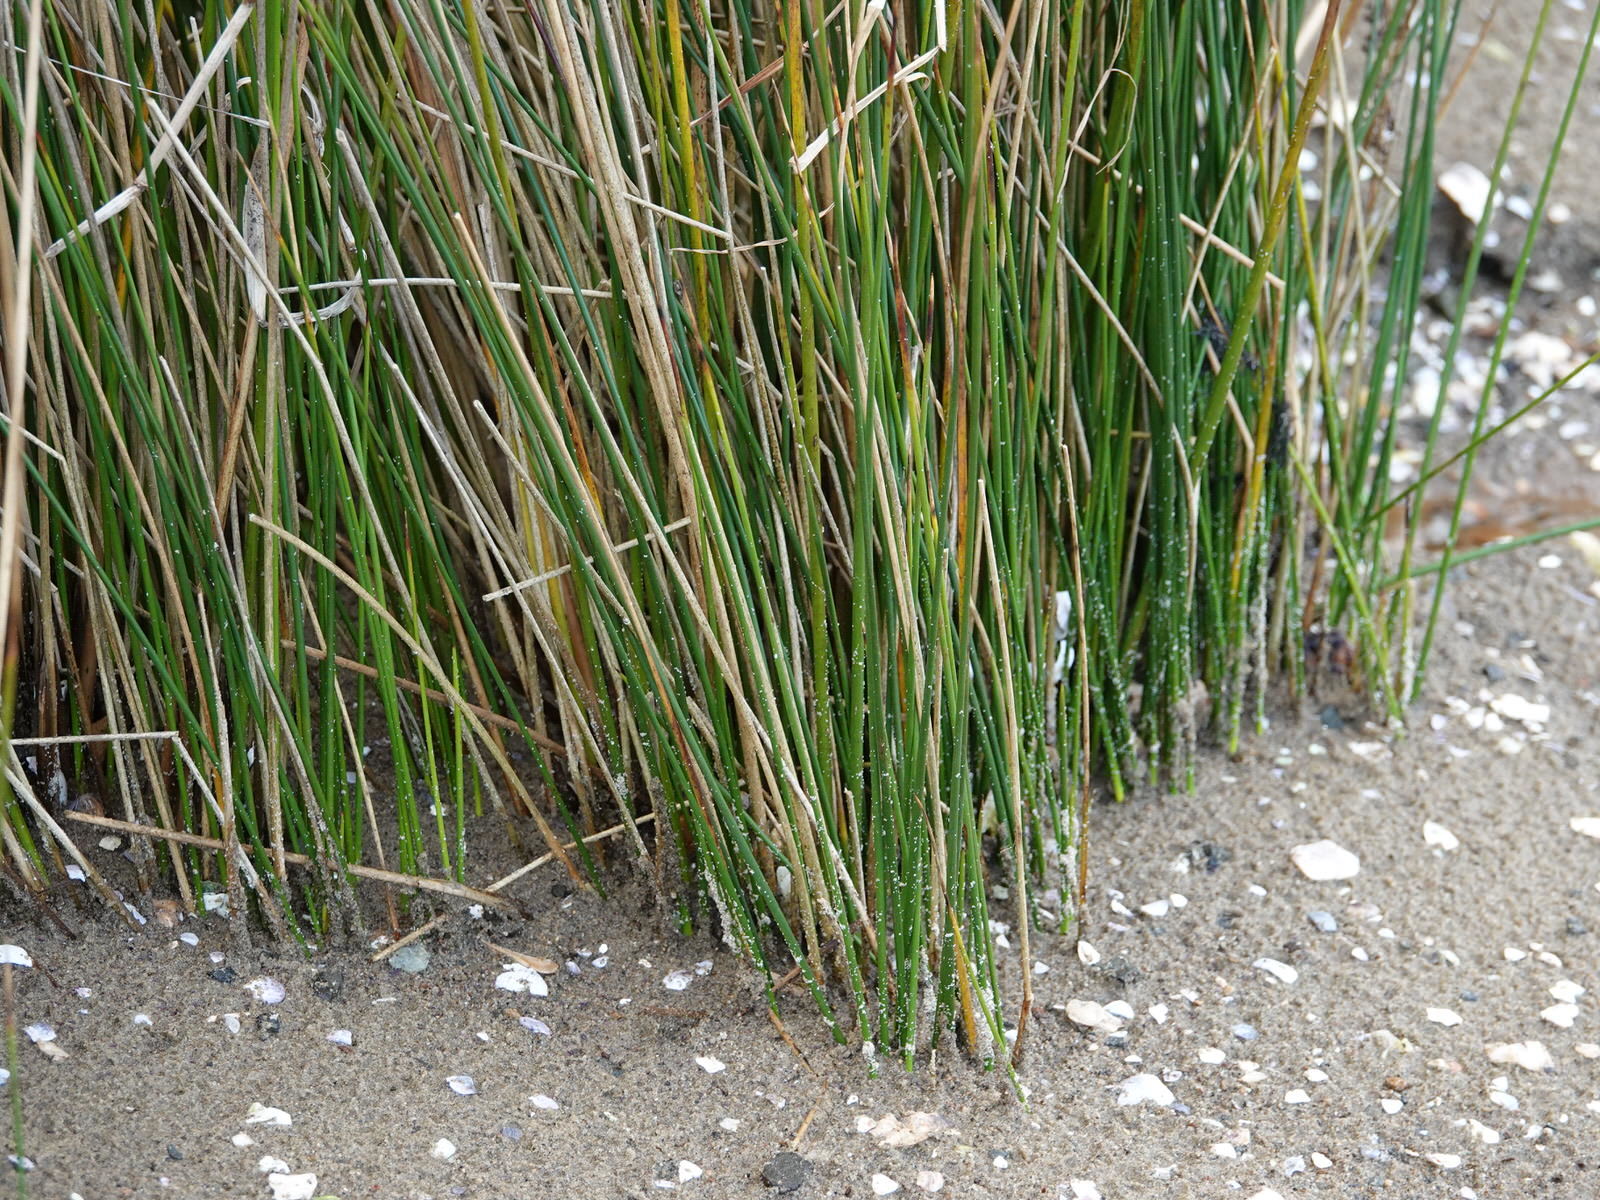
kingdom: Plantae
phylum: Tracheophyta
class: Liliopsida
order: Poales
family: Juncaceae
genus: Juncus
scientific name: Juncus kraussii
